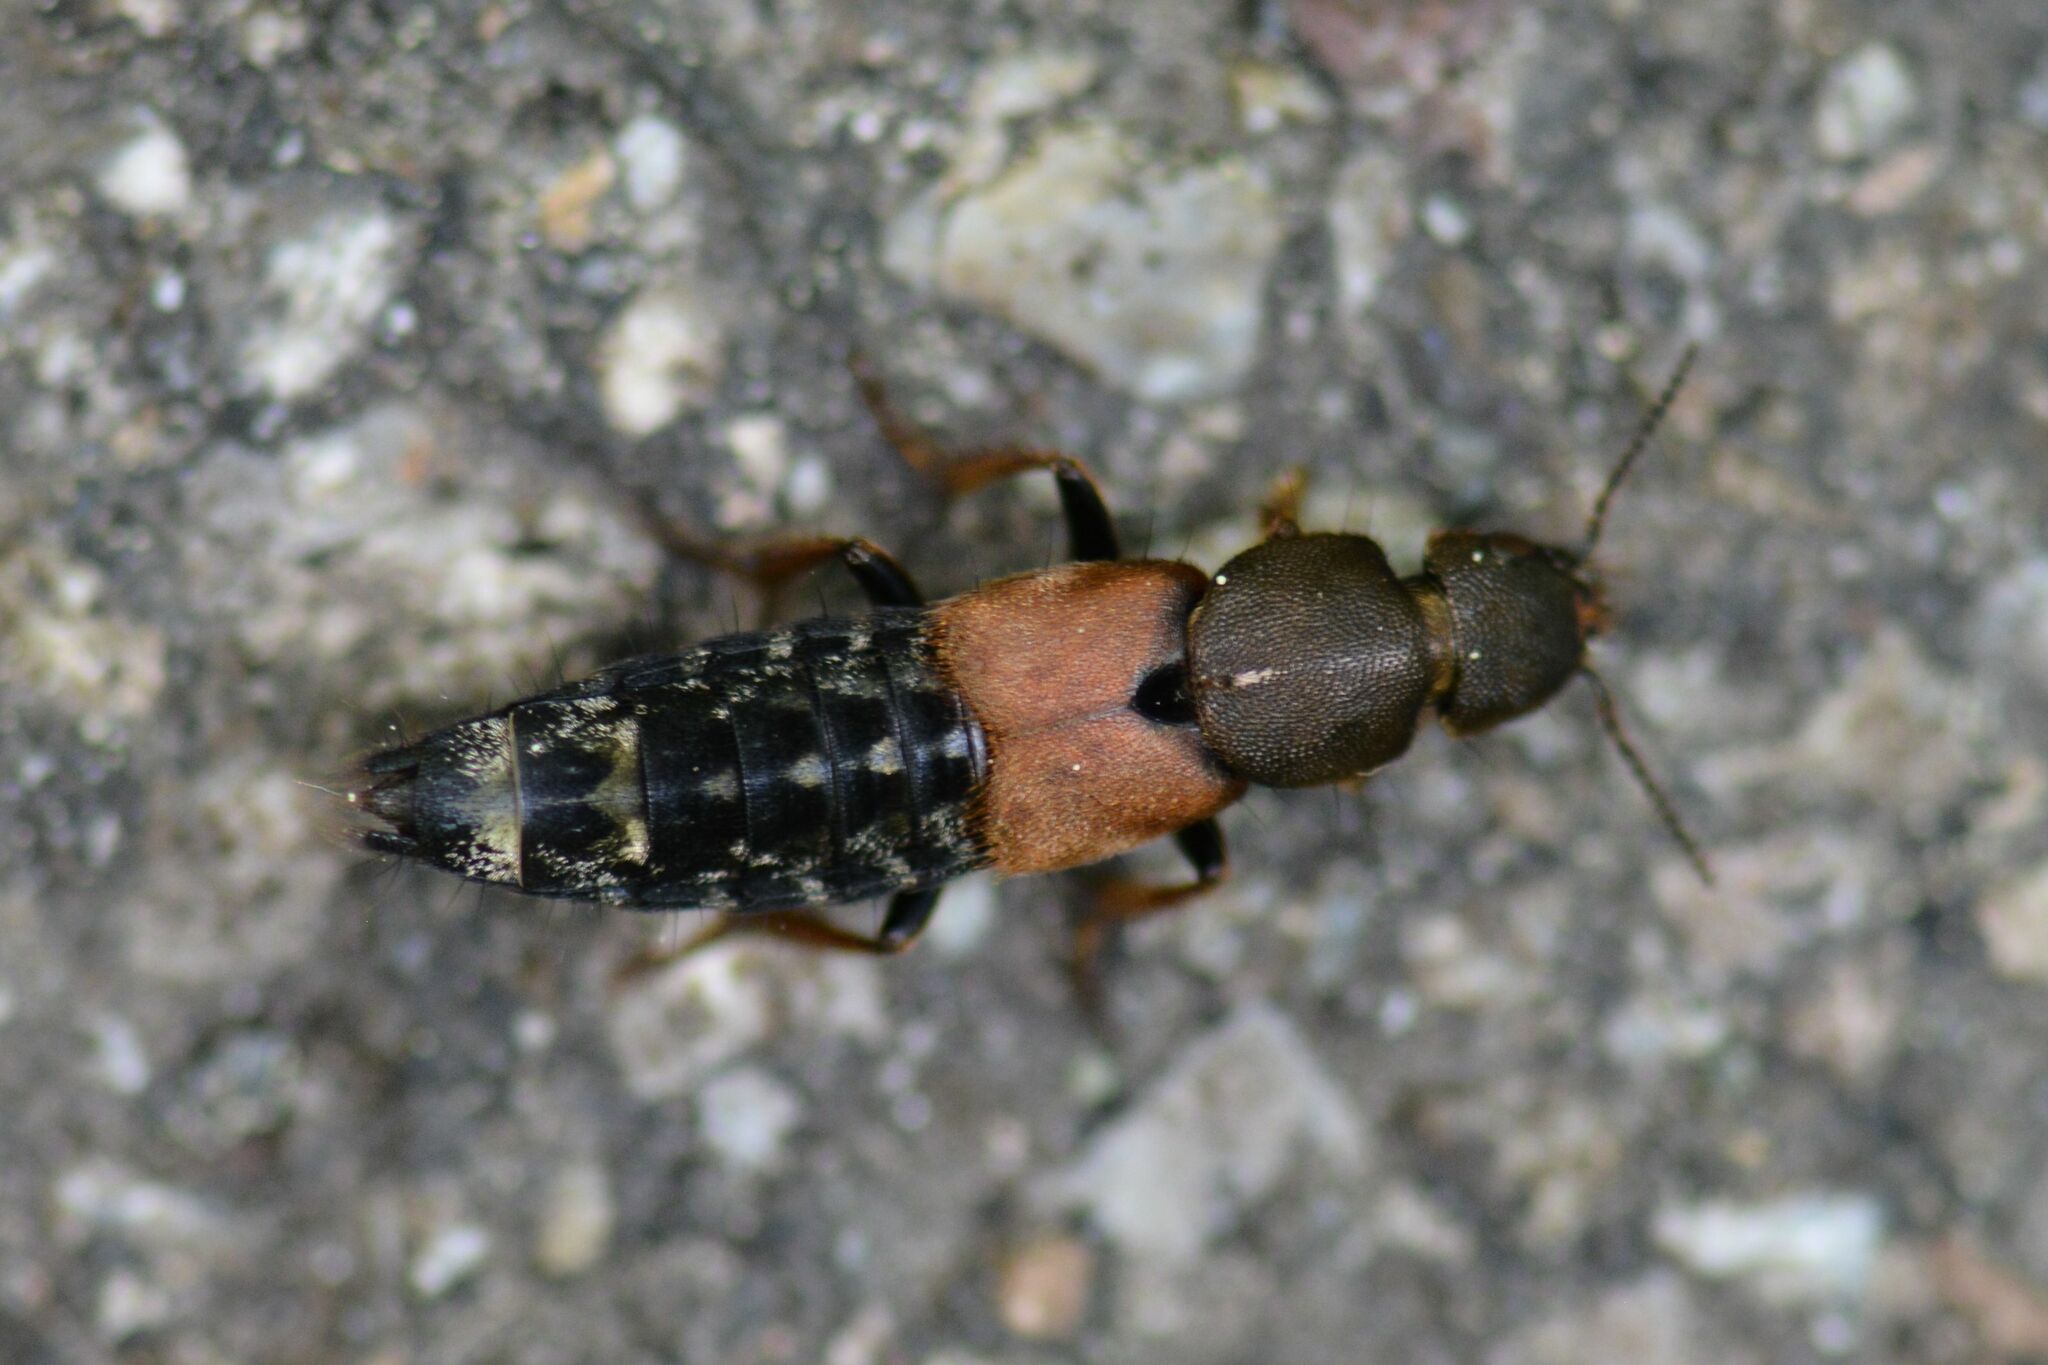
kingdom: Animalia
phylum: Arthropoda
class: Insecta
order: Coleoptera
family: Staphylinidae
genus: Platydracus
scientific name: Platydracus chalcocephalus
